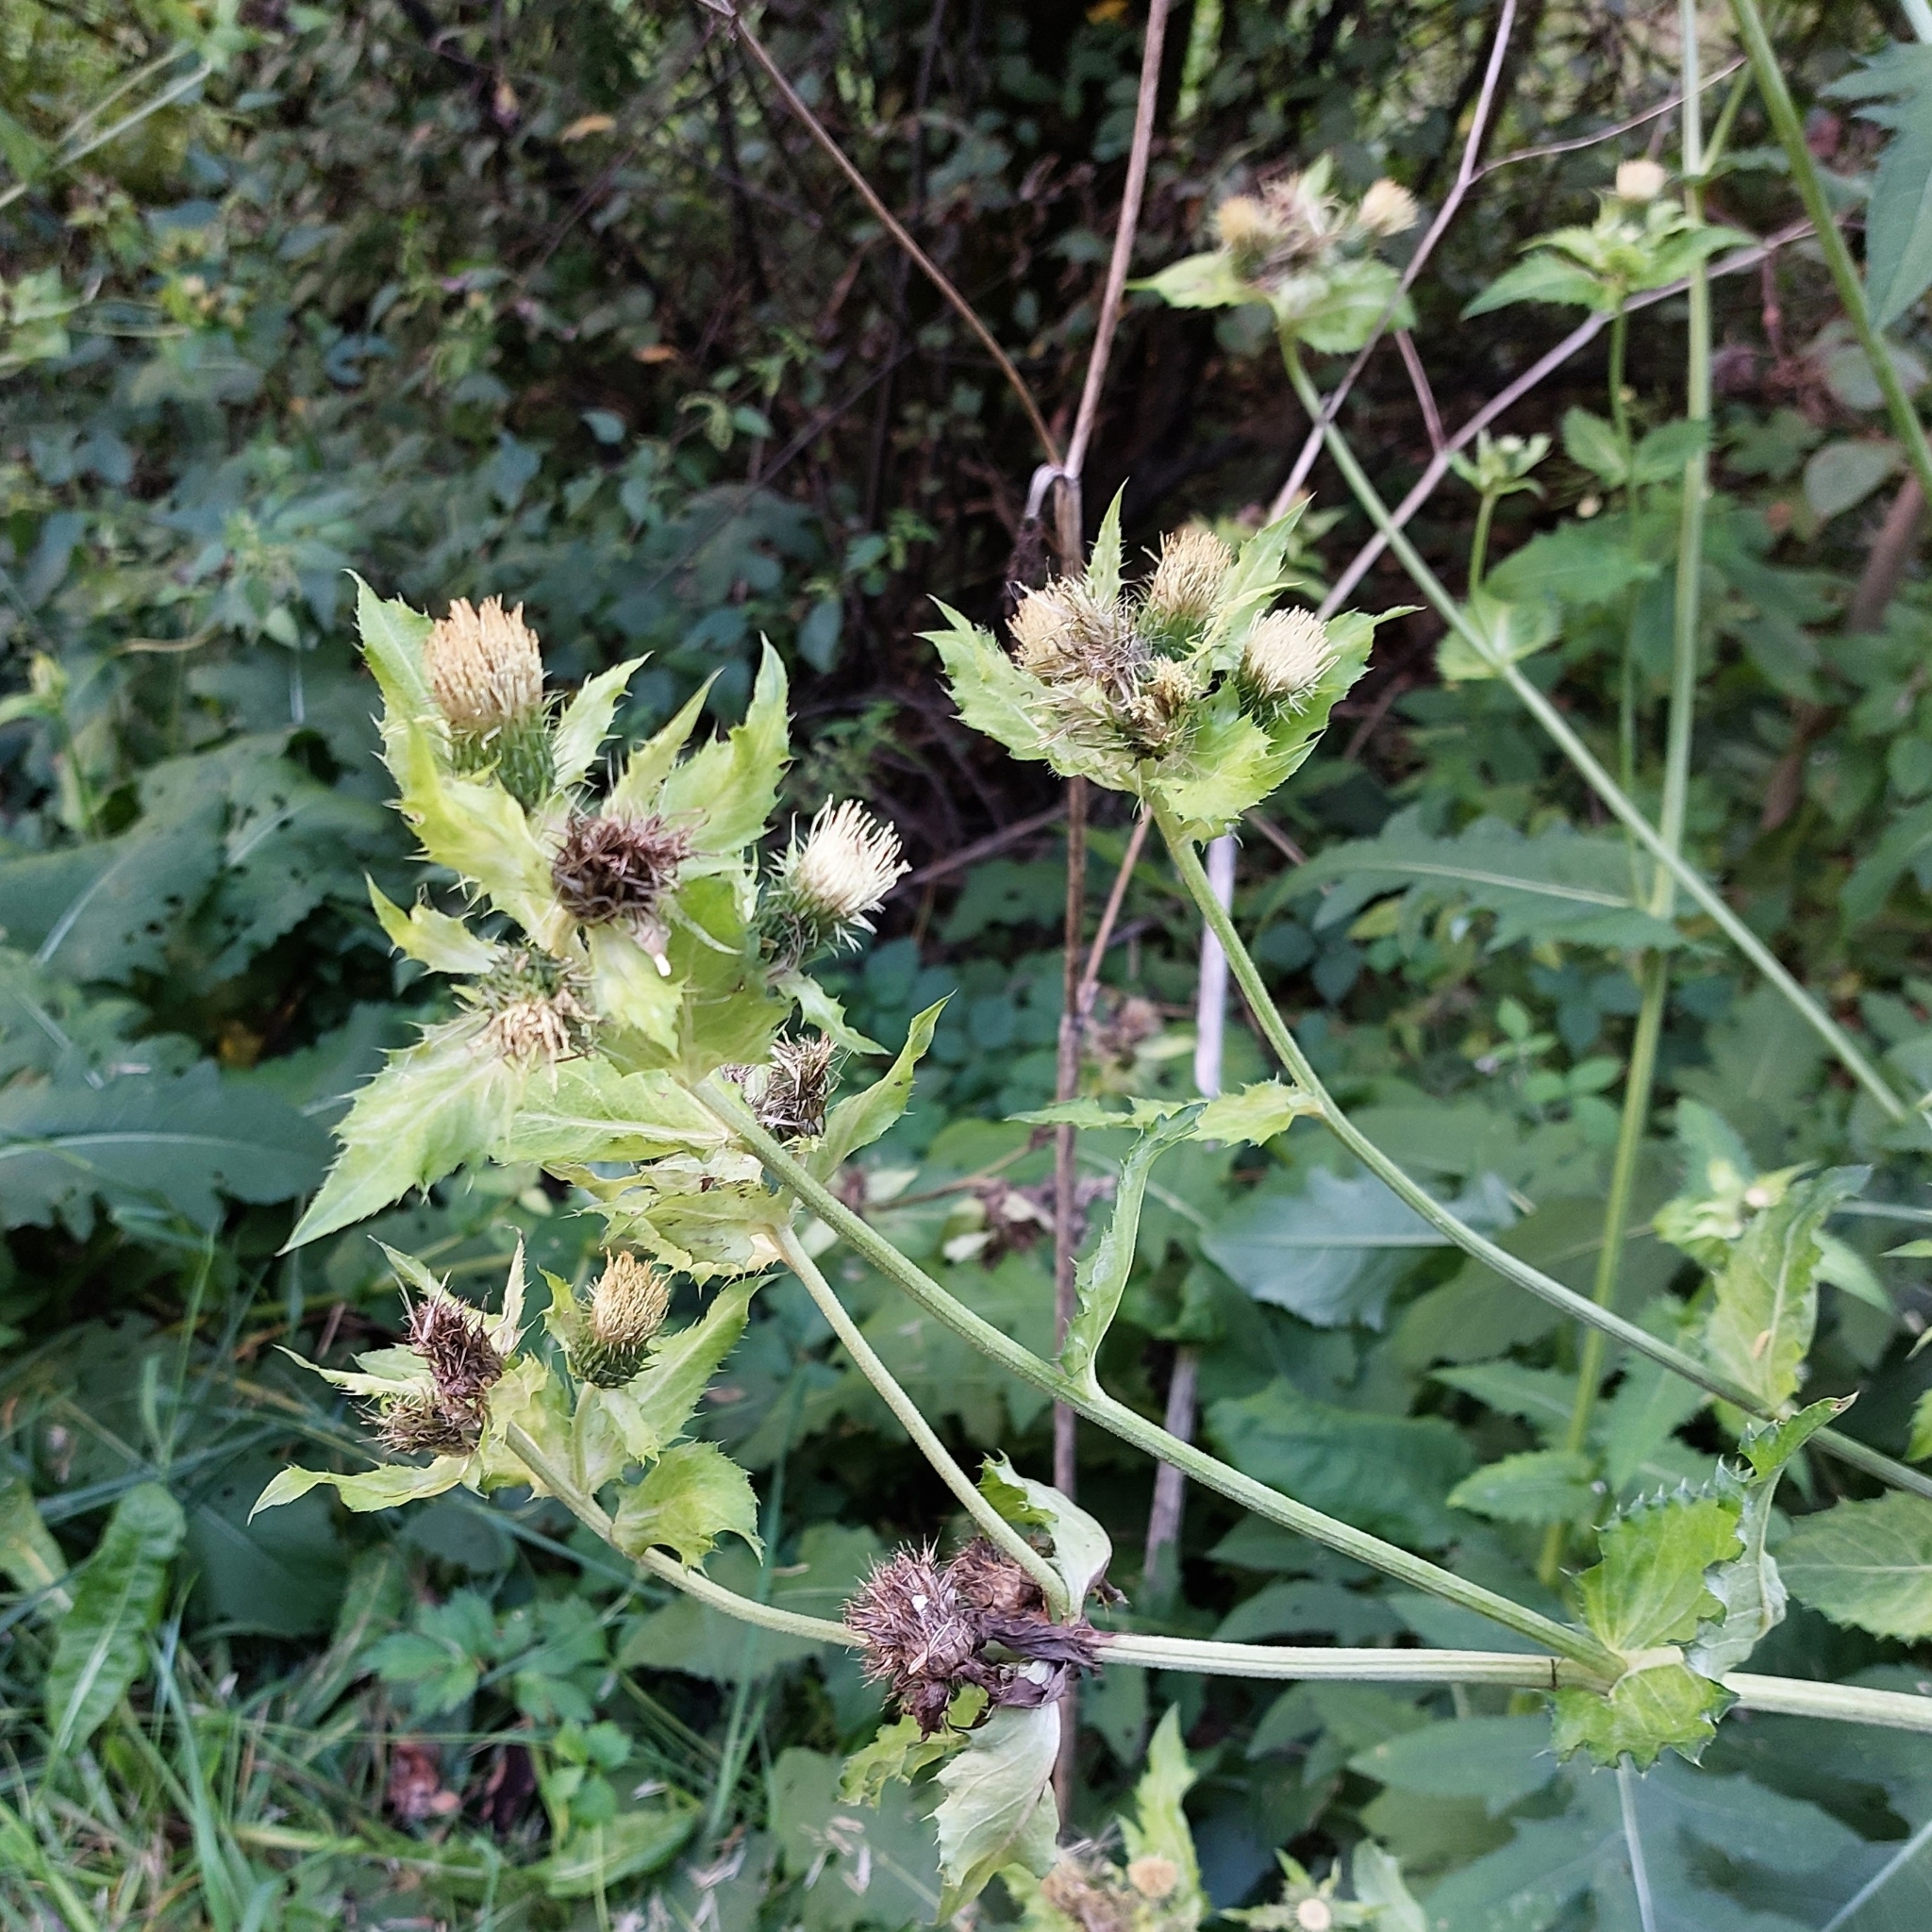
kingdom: Plantae
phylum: Tracheophyta
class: Magnoliopsida
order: Asterales
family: Asteraceae
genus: Cirsium
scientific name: Cirsium oleraceum
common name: Cabbage thistle
